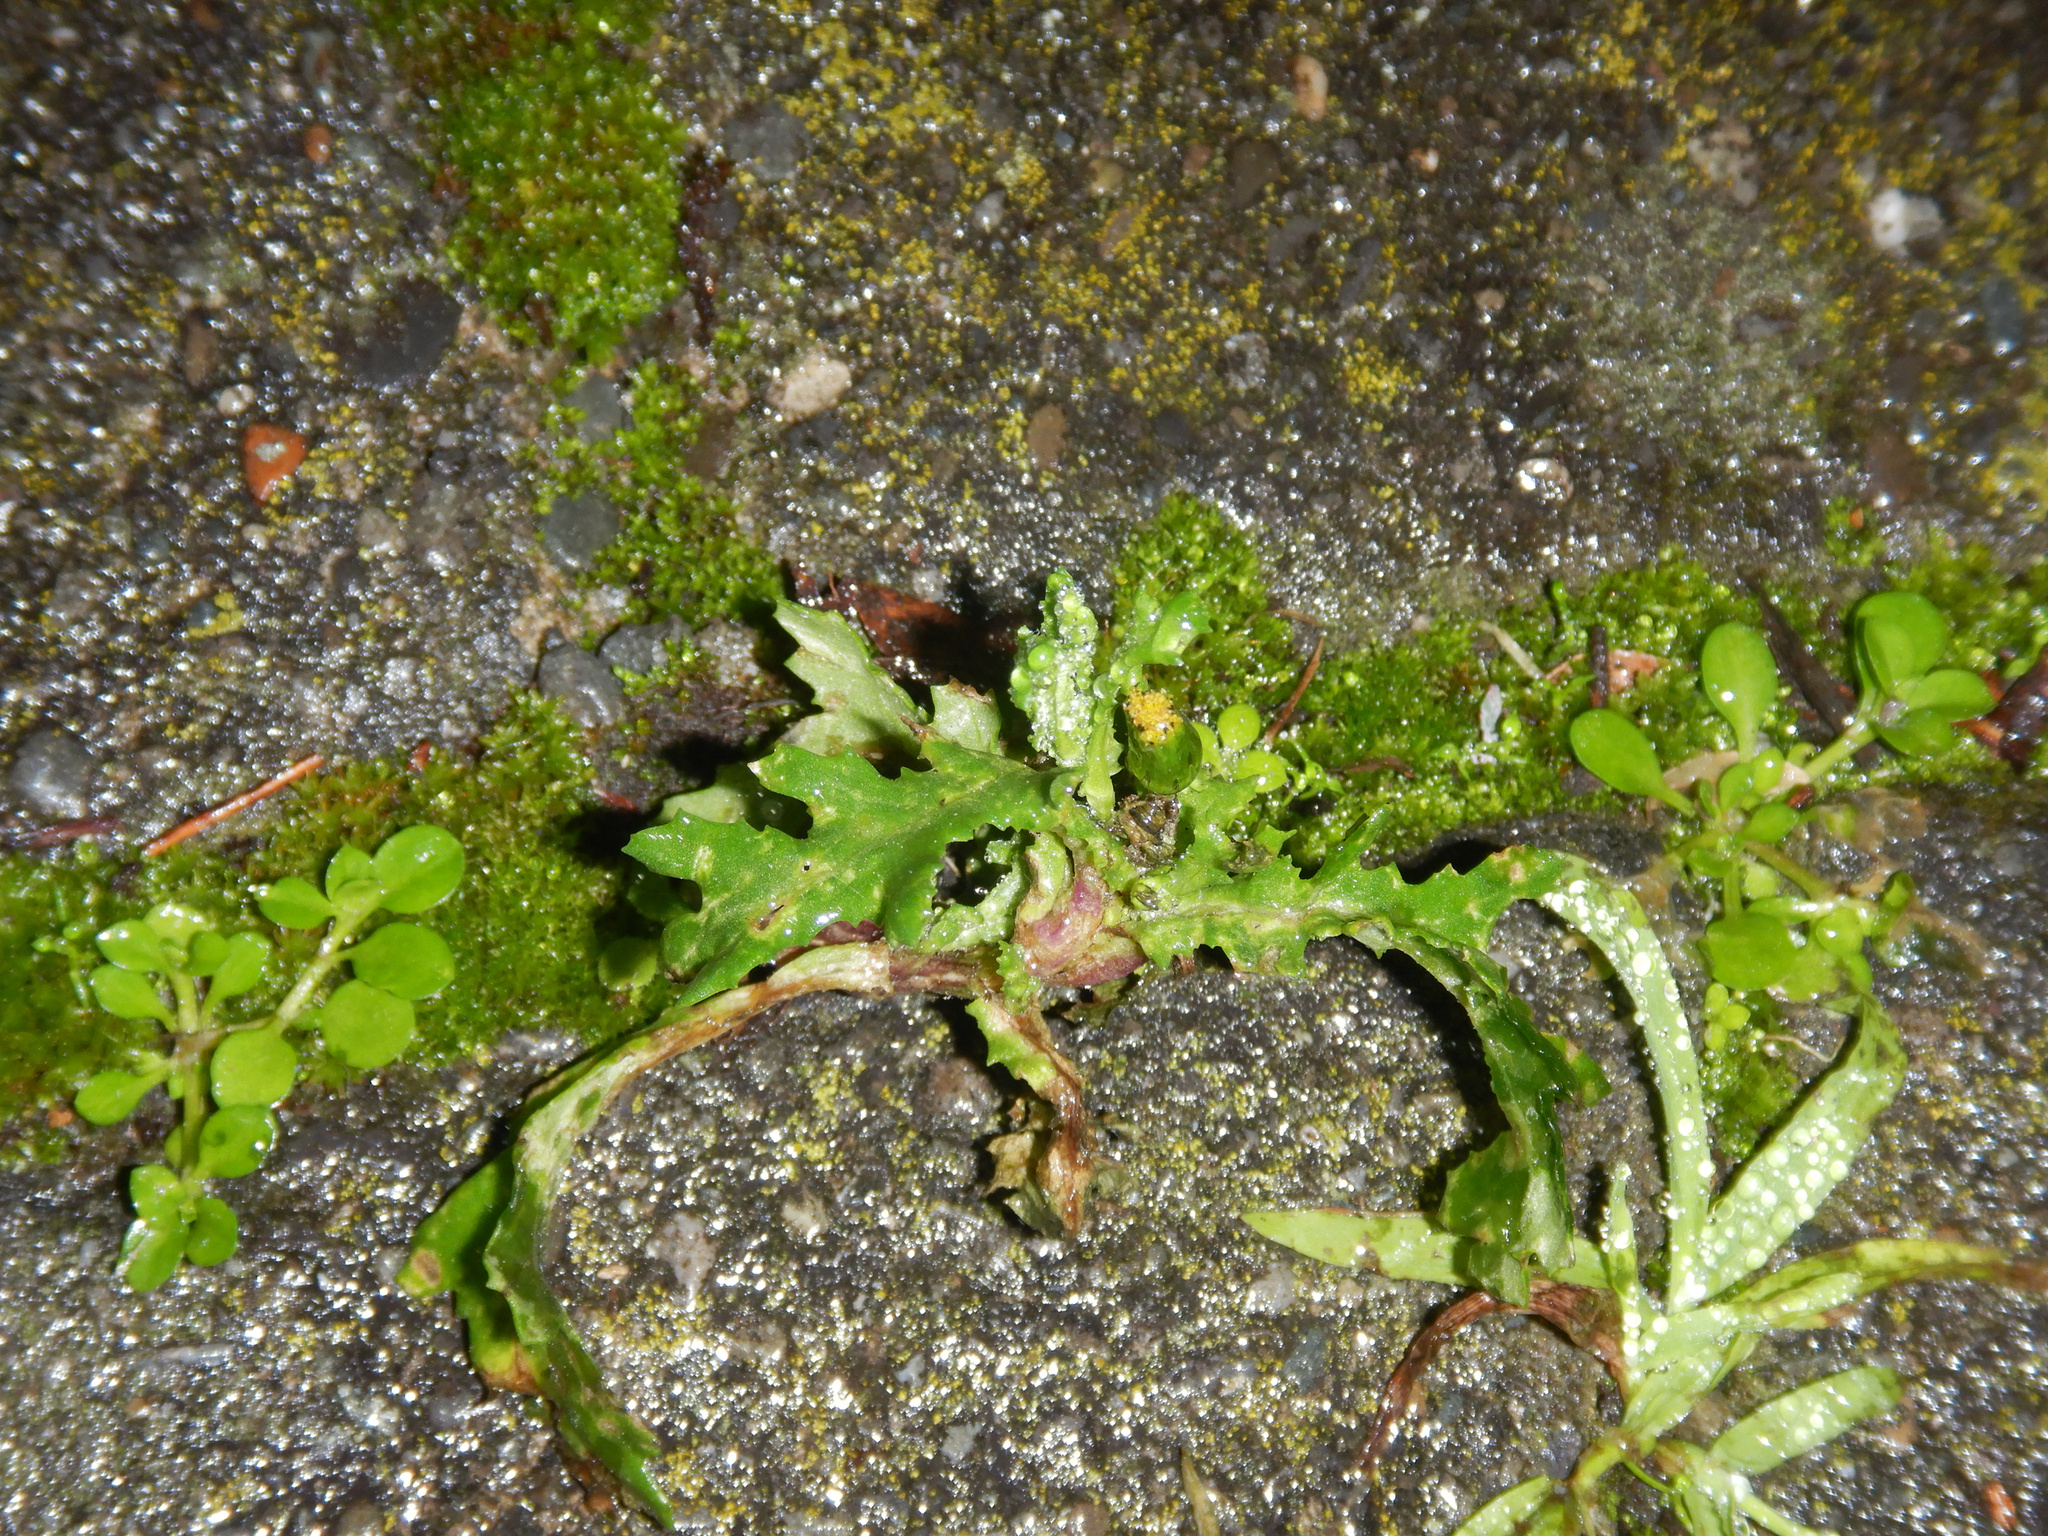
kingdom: Plantae
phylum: Tracheophyta
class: Magnoliopsida
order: Asterales
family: Asteraceae
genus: Senecio
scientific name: Senecio vulgaris
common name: Old-man-in-the-spring
